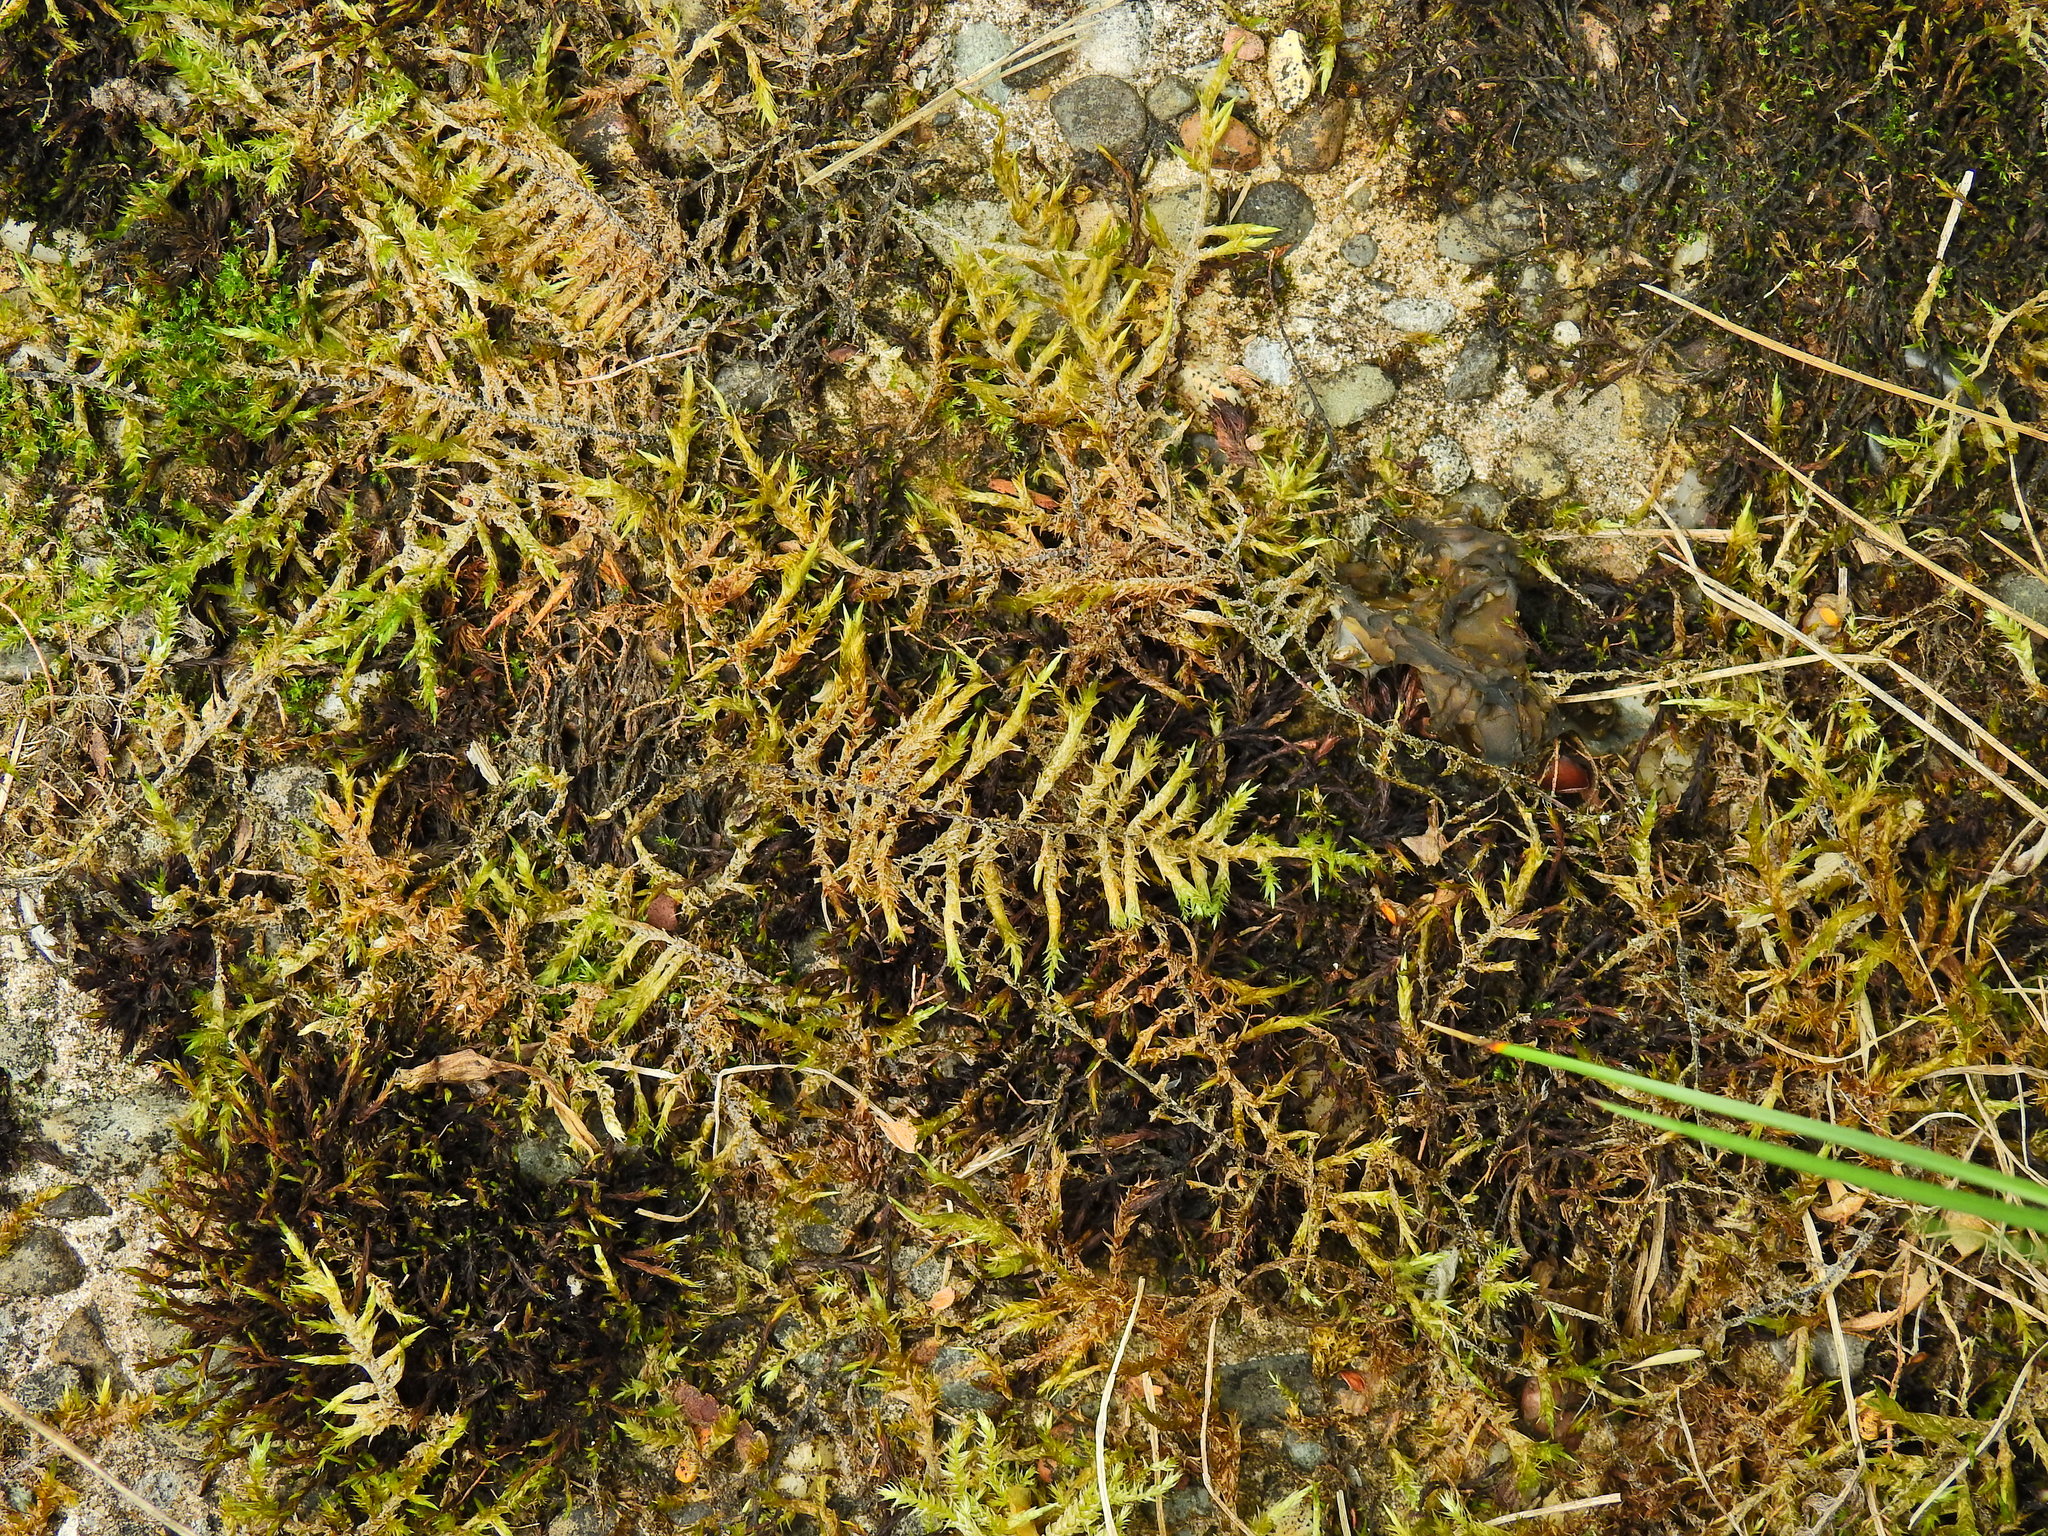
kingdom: Plantae
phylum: Bryophyta
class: Bryopsida
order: Hypnales
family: Pylaisiaceae
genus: Calliergonella
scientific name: Calliergonella cuspidata
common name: Common large wetland moss
